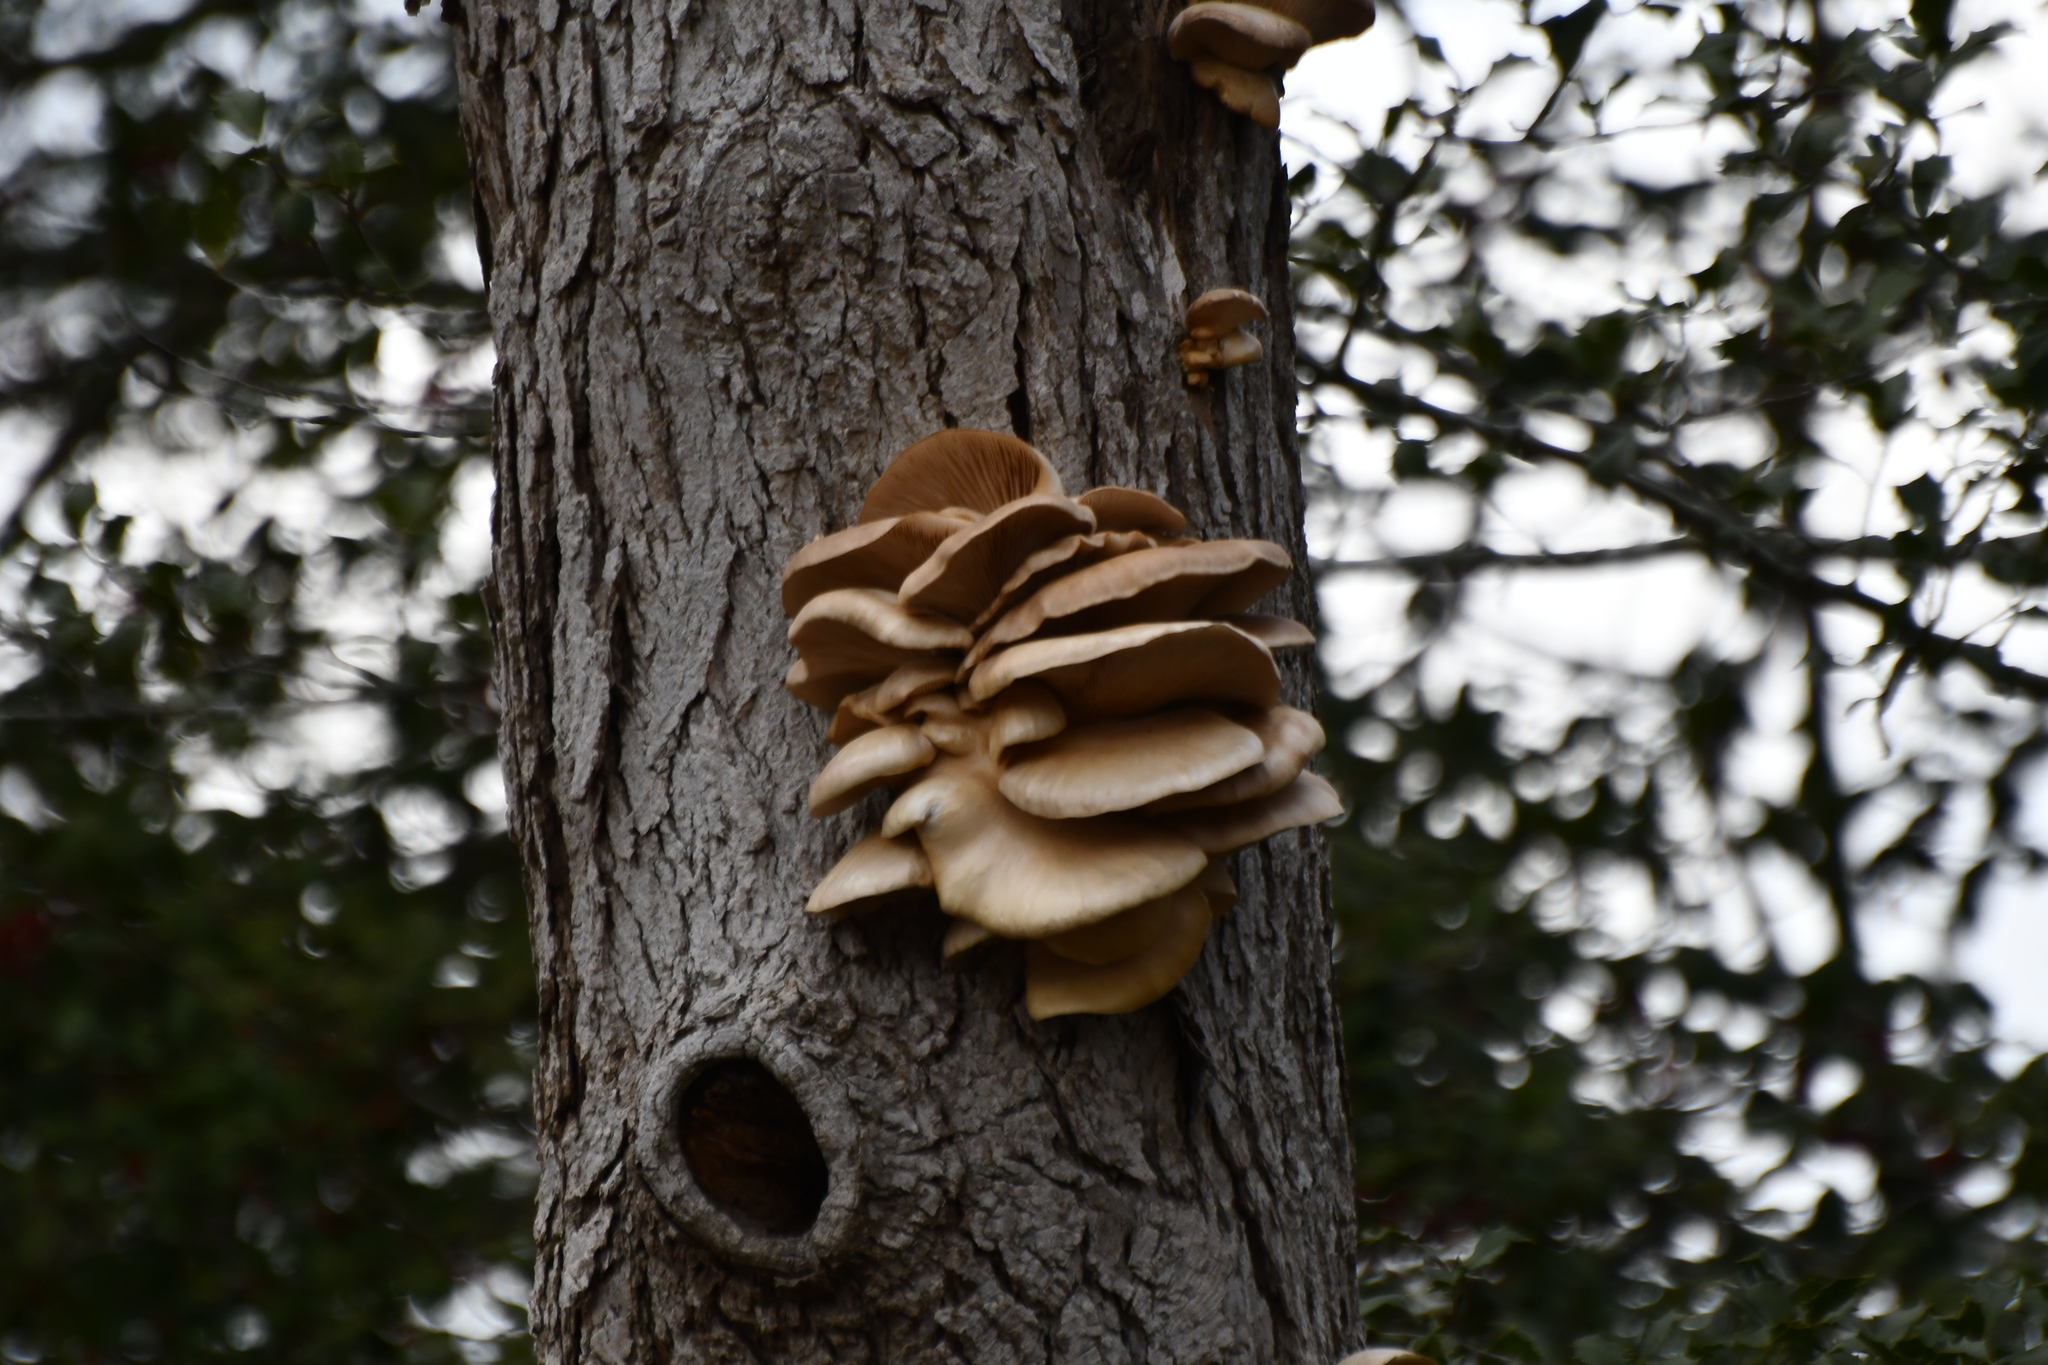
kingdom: Fungi
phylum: Basidiomycota
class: Agaricomycetes
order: Agaricales
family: Pleurotaceae
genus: Pleurotus
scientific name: Pleurotus ostreatus
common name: Oyster mushroom
